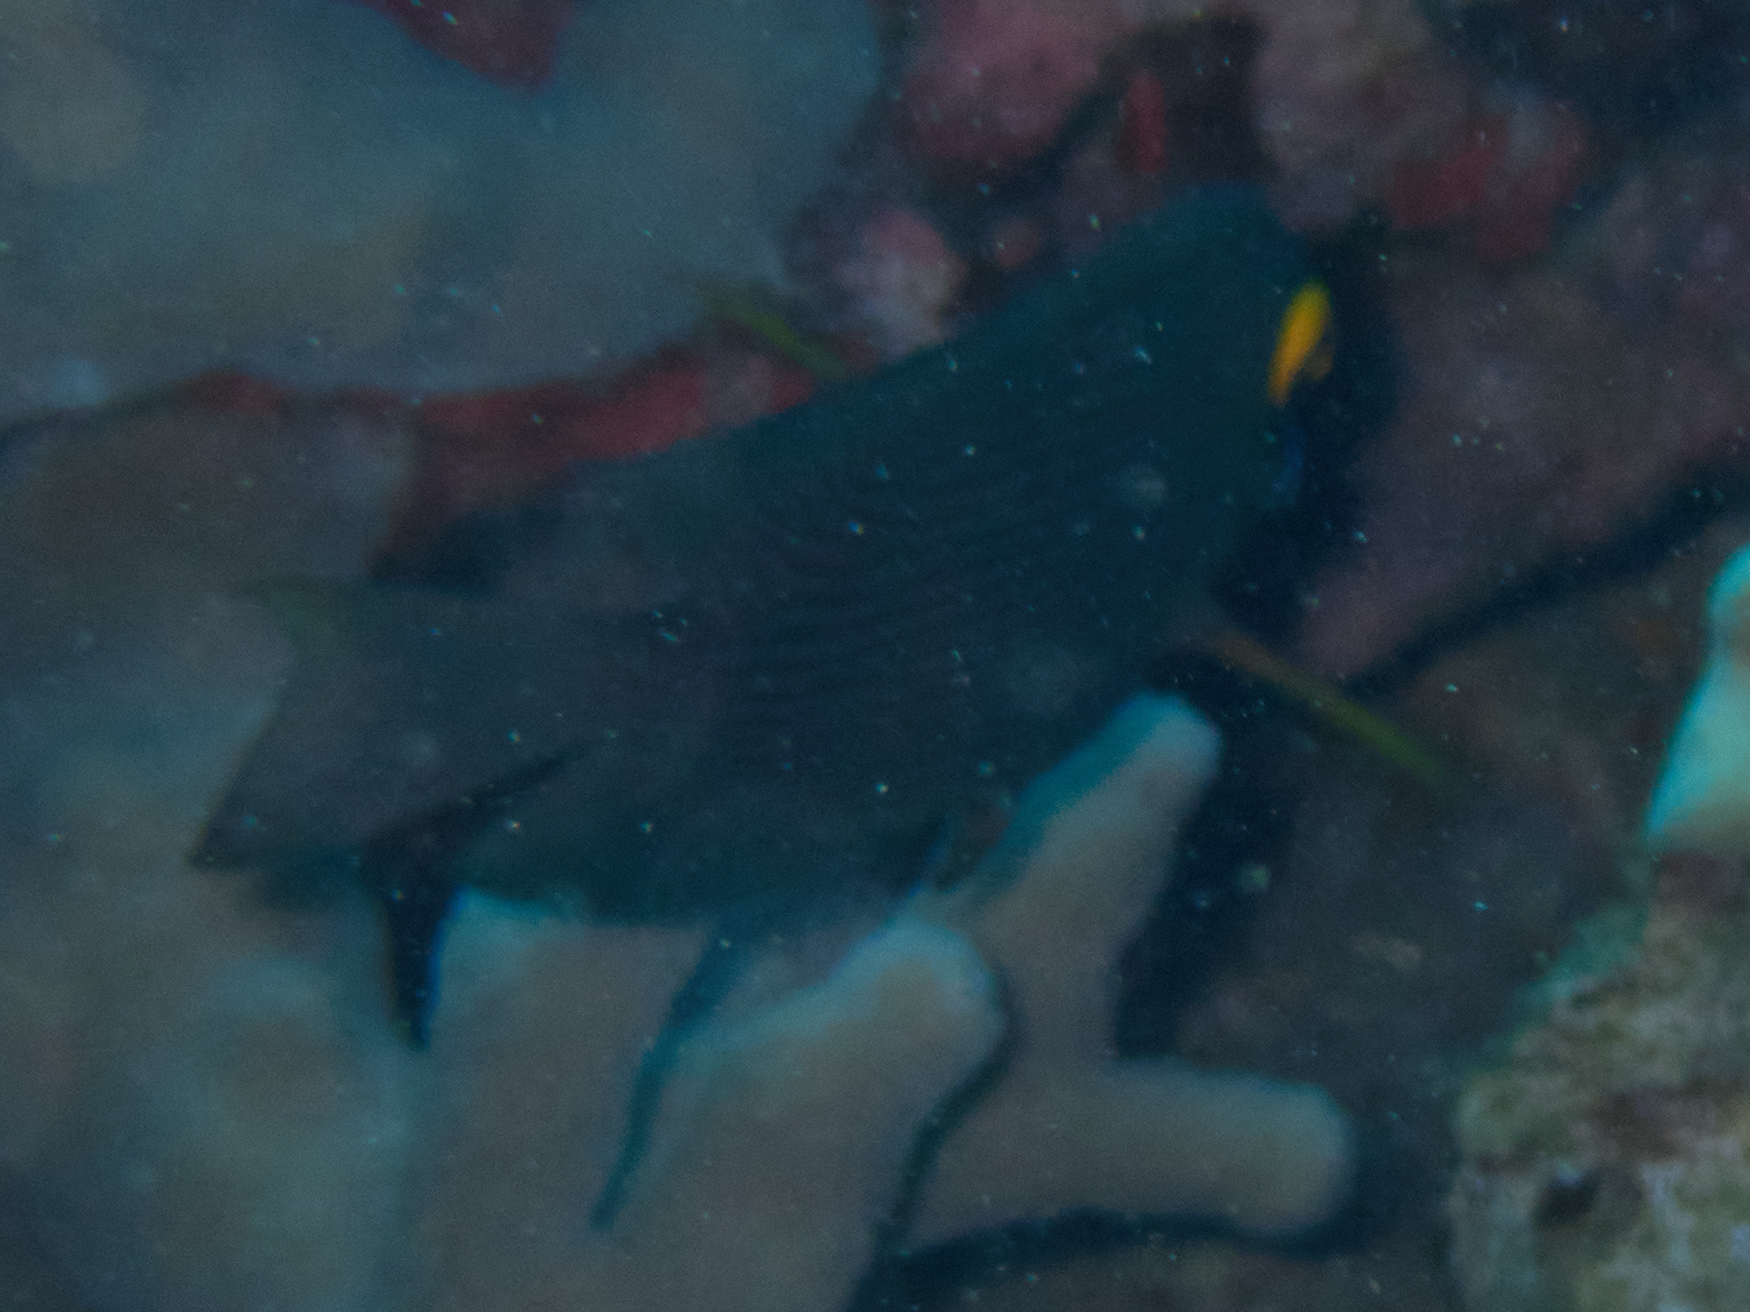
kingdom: Animalia
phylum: Chordata
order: Perciformes
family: Acanthuridae
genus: Ctenochaetus
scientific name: Ctenochaetus strigosus
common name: Bristletoothed surgeonfish
